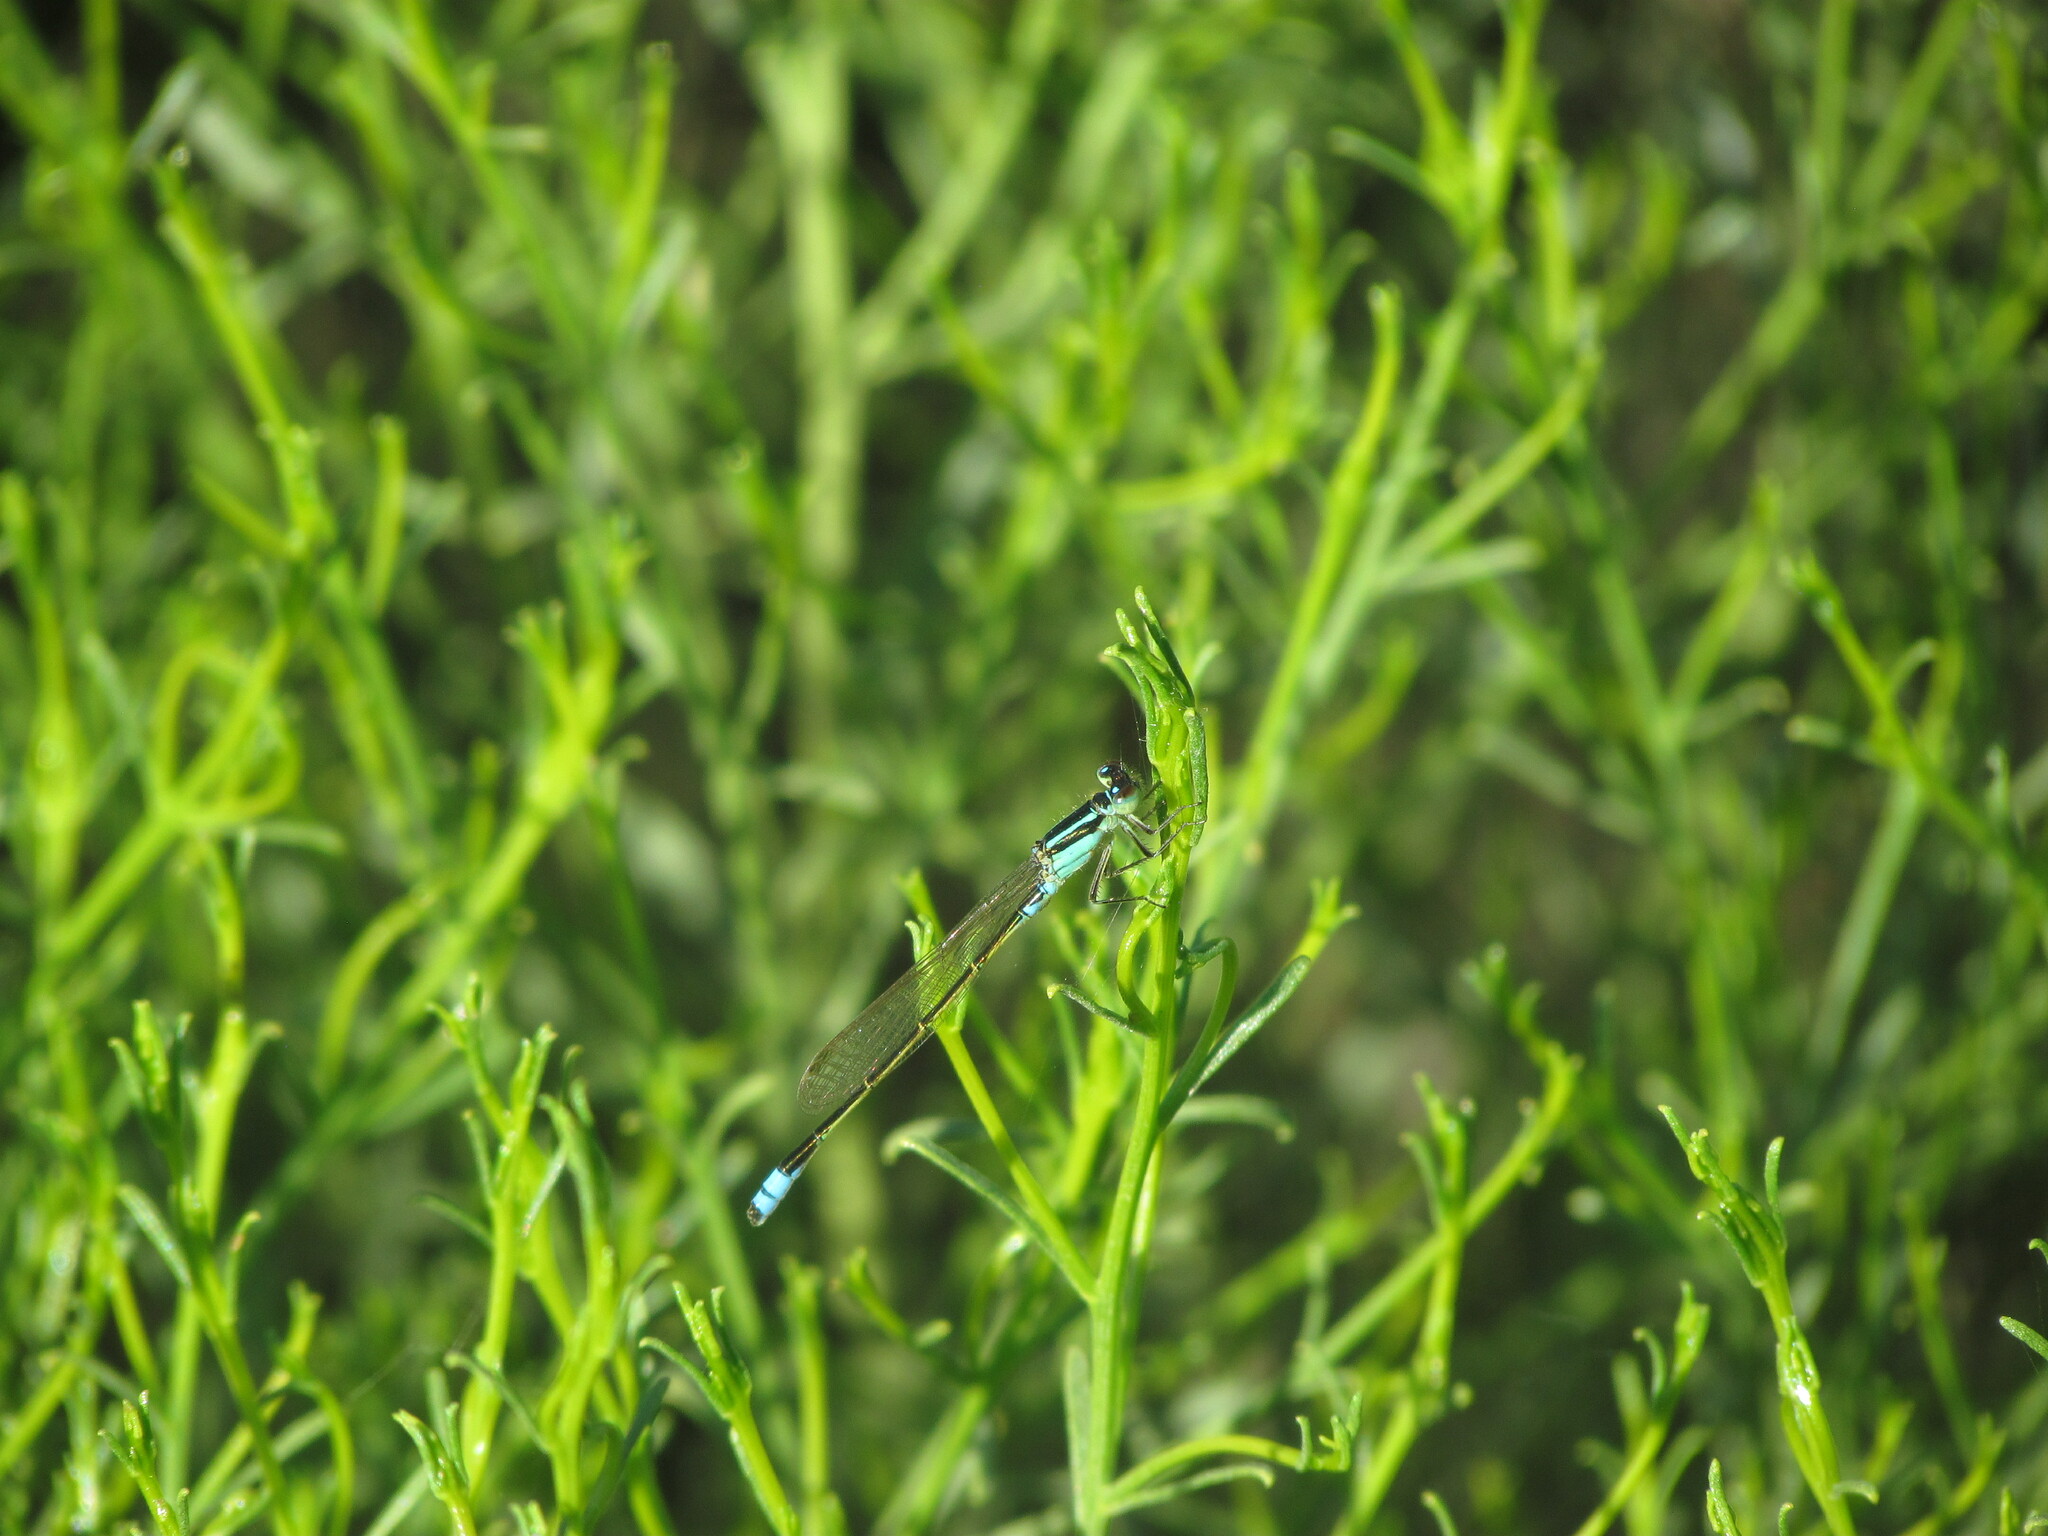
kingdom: Animalia
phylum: Arthropoda
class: Insecta
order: Odonata
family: Coenagrionidae
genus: Ischnura
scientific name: Ischnura fluviatilis
